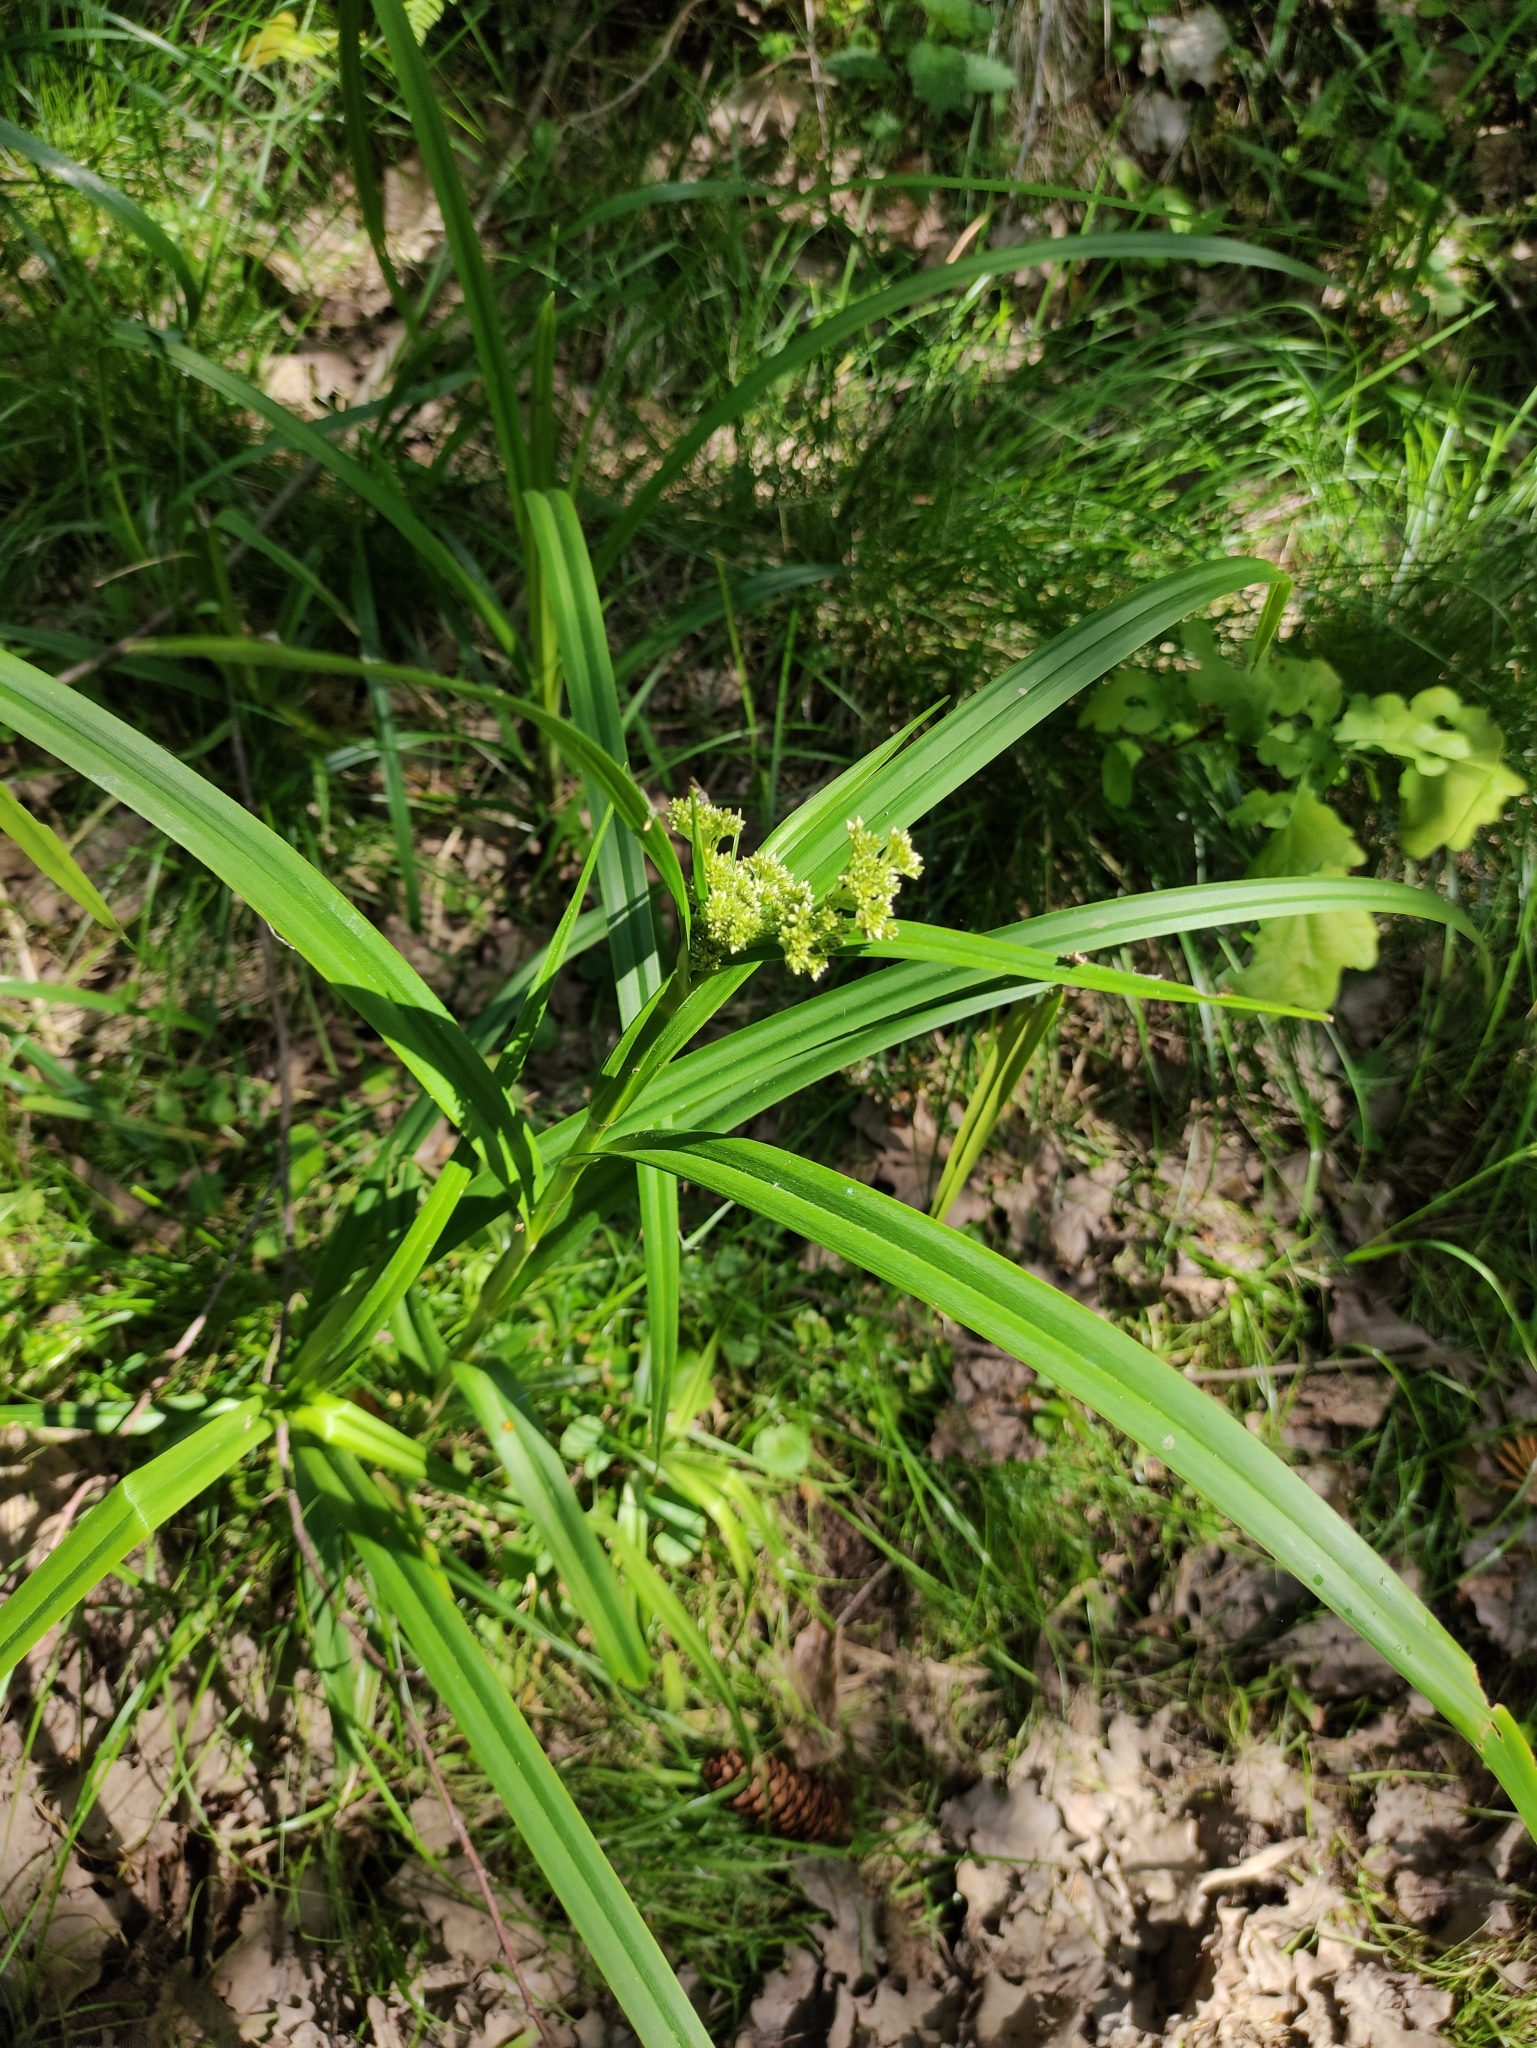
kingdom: Plantae
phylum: Tracheophyta
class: Liliopsida
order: Poales
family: Cyperaceae
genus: Scirpus
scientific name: Scirpus sylvaticus
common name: Wood club-rush
